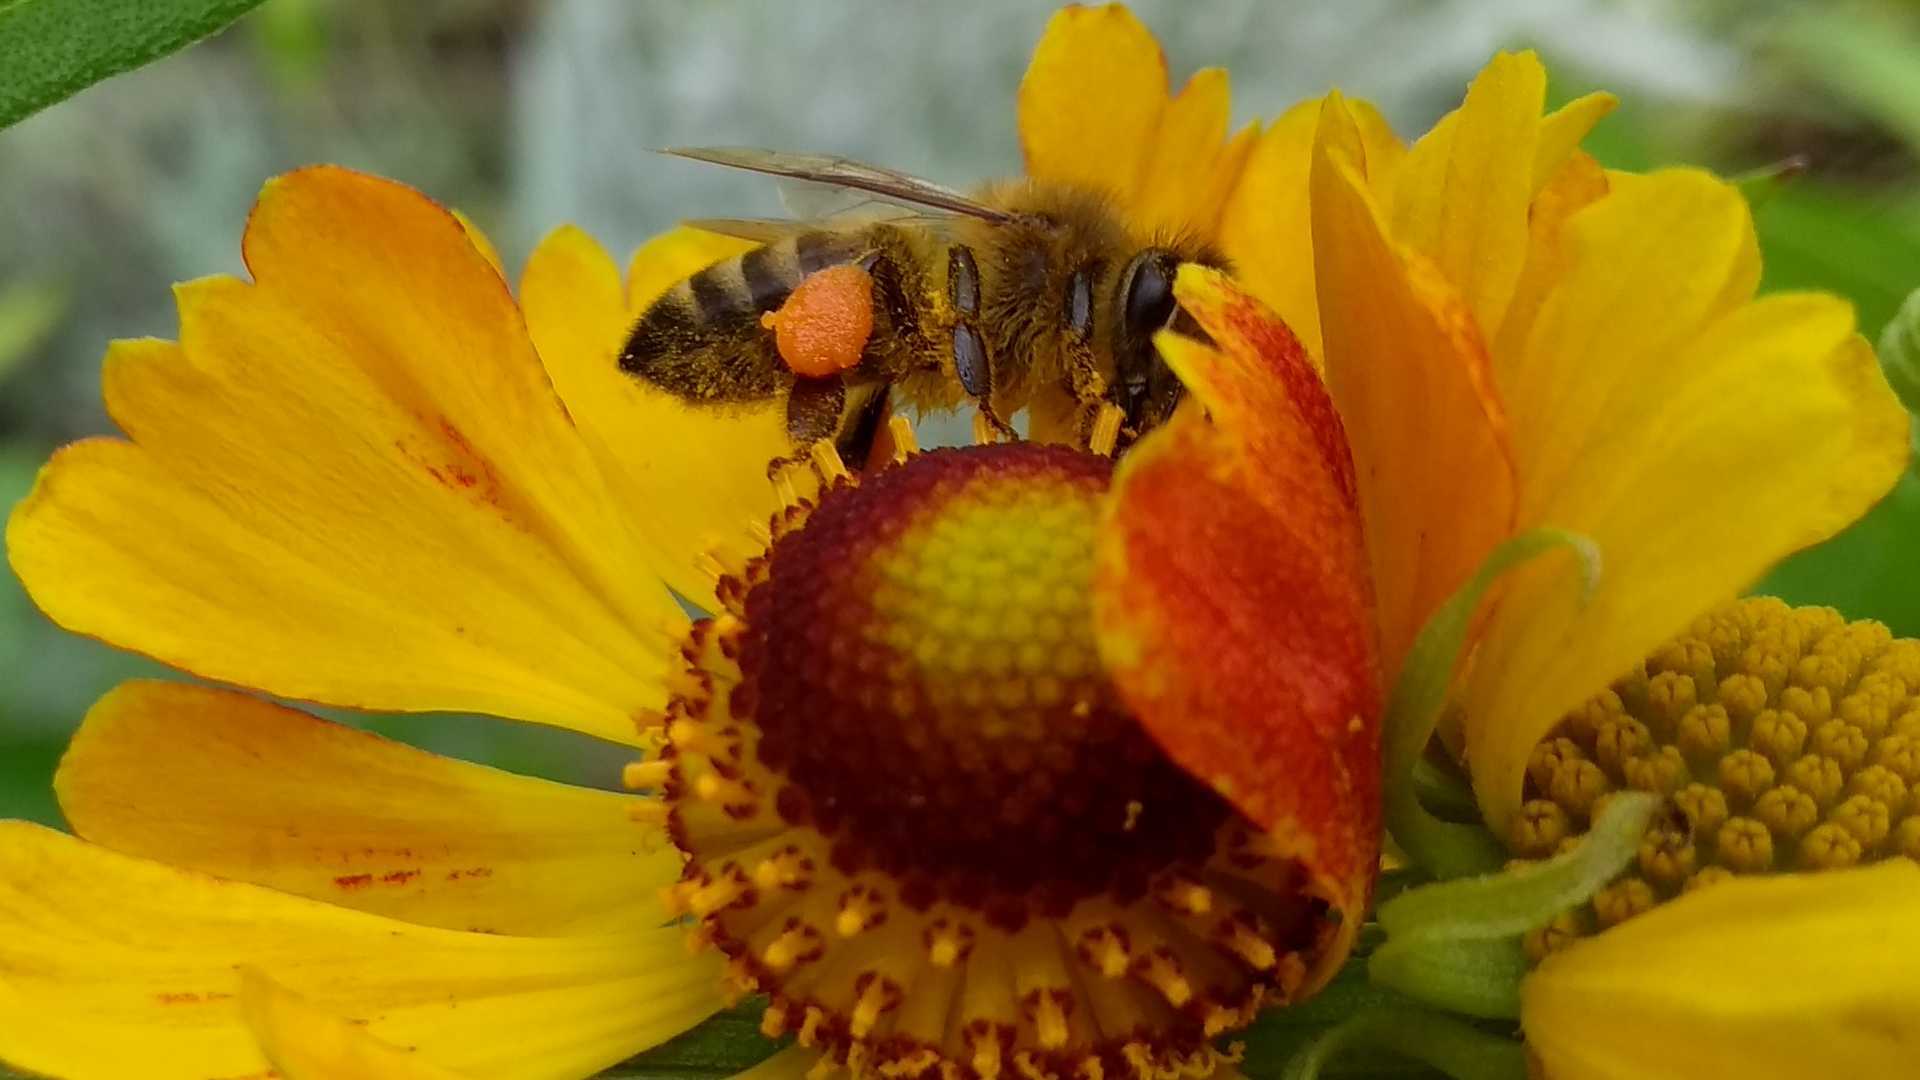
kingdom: Animalia
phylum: Arthropoda
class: Insecta
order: Hymenoptera
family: Apidae
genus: Apis
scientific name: Apis mellifera
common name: Honey bee
